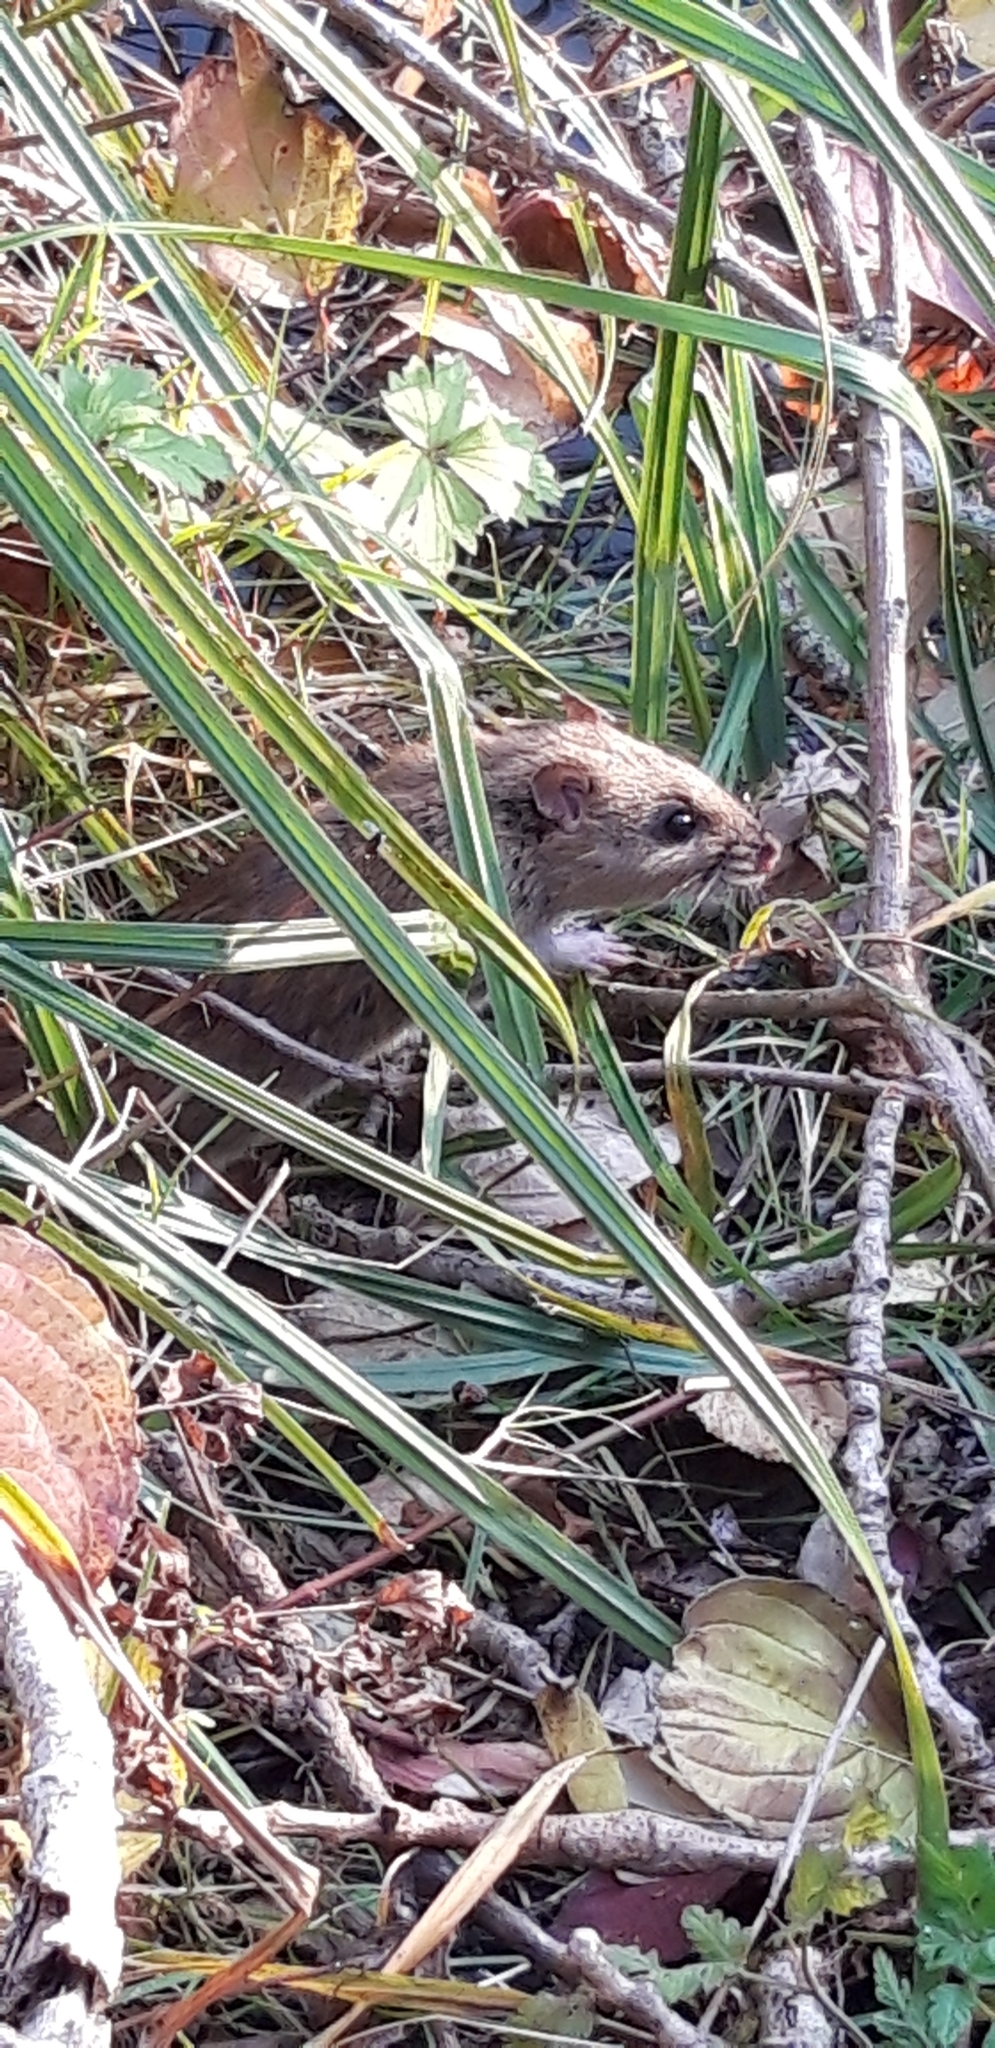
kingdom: Animalia
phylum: Chordata
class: Mammalia
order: Rodentia
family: Muridae
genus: Rattus
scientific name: Rattus norvegicus
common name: Brown rat
